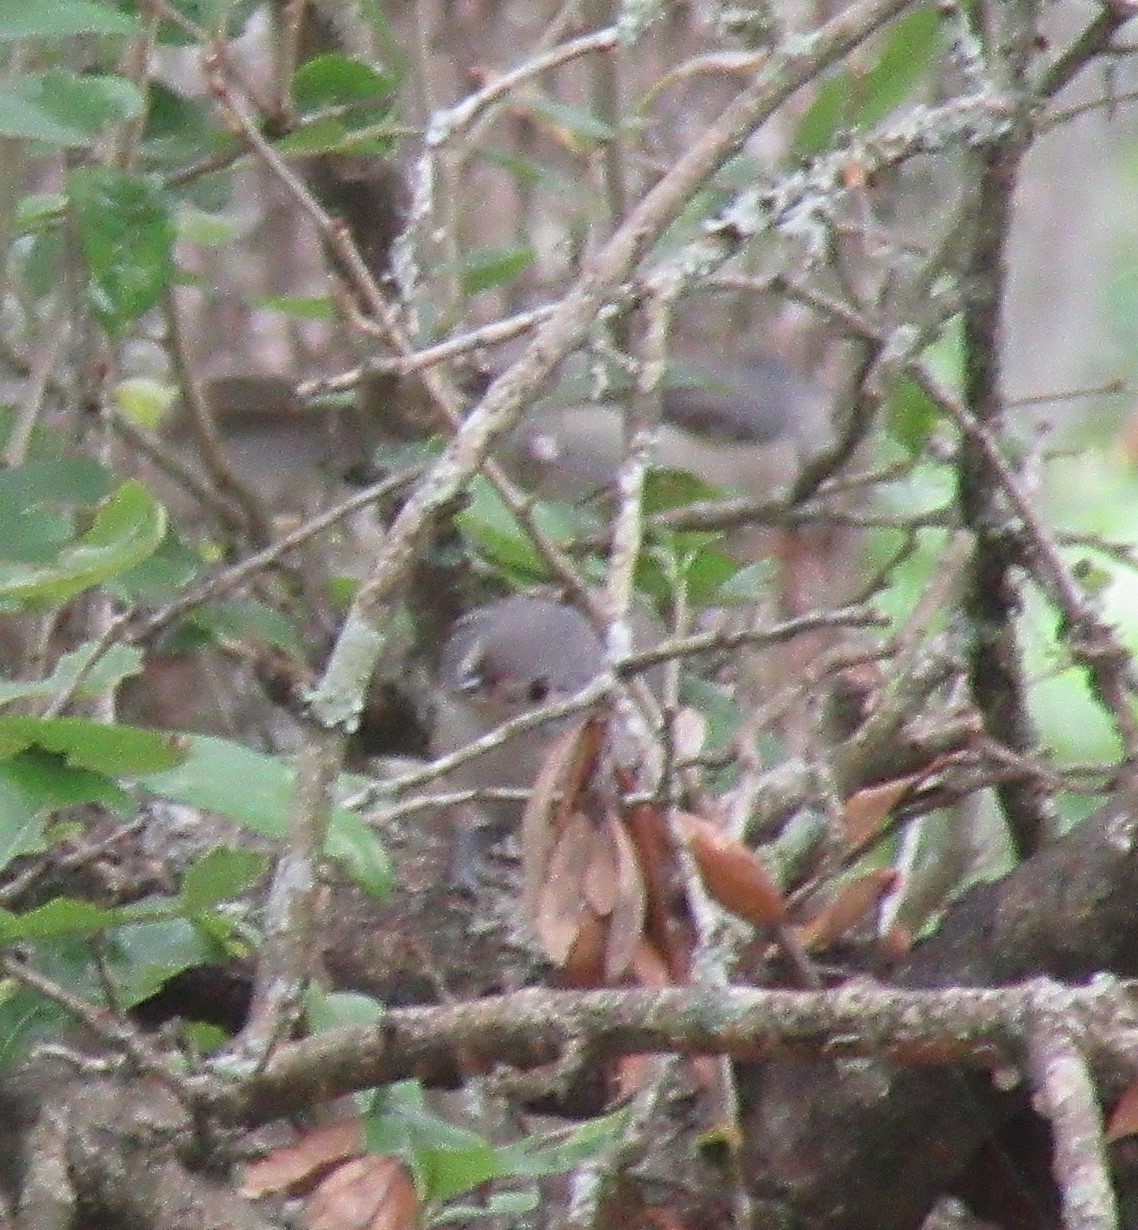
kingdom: Animalia
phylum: Chordata
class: Aves
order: Passeriformes
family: Paridae
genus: Baeolophus
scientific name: Baeolophus bicolor
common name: Tufted titmouse
